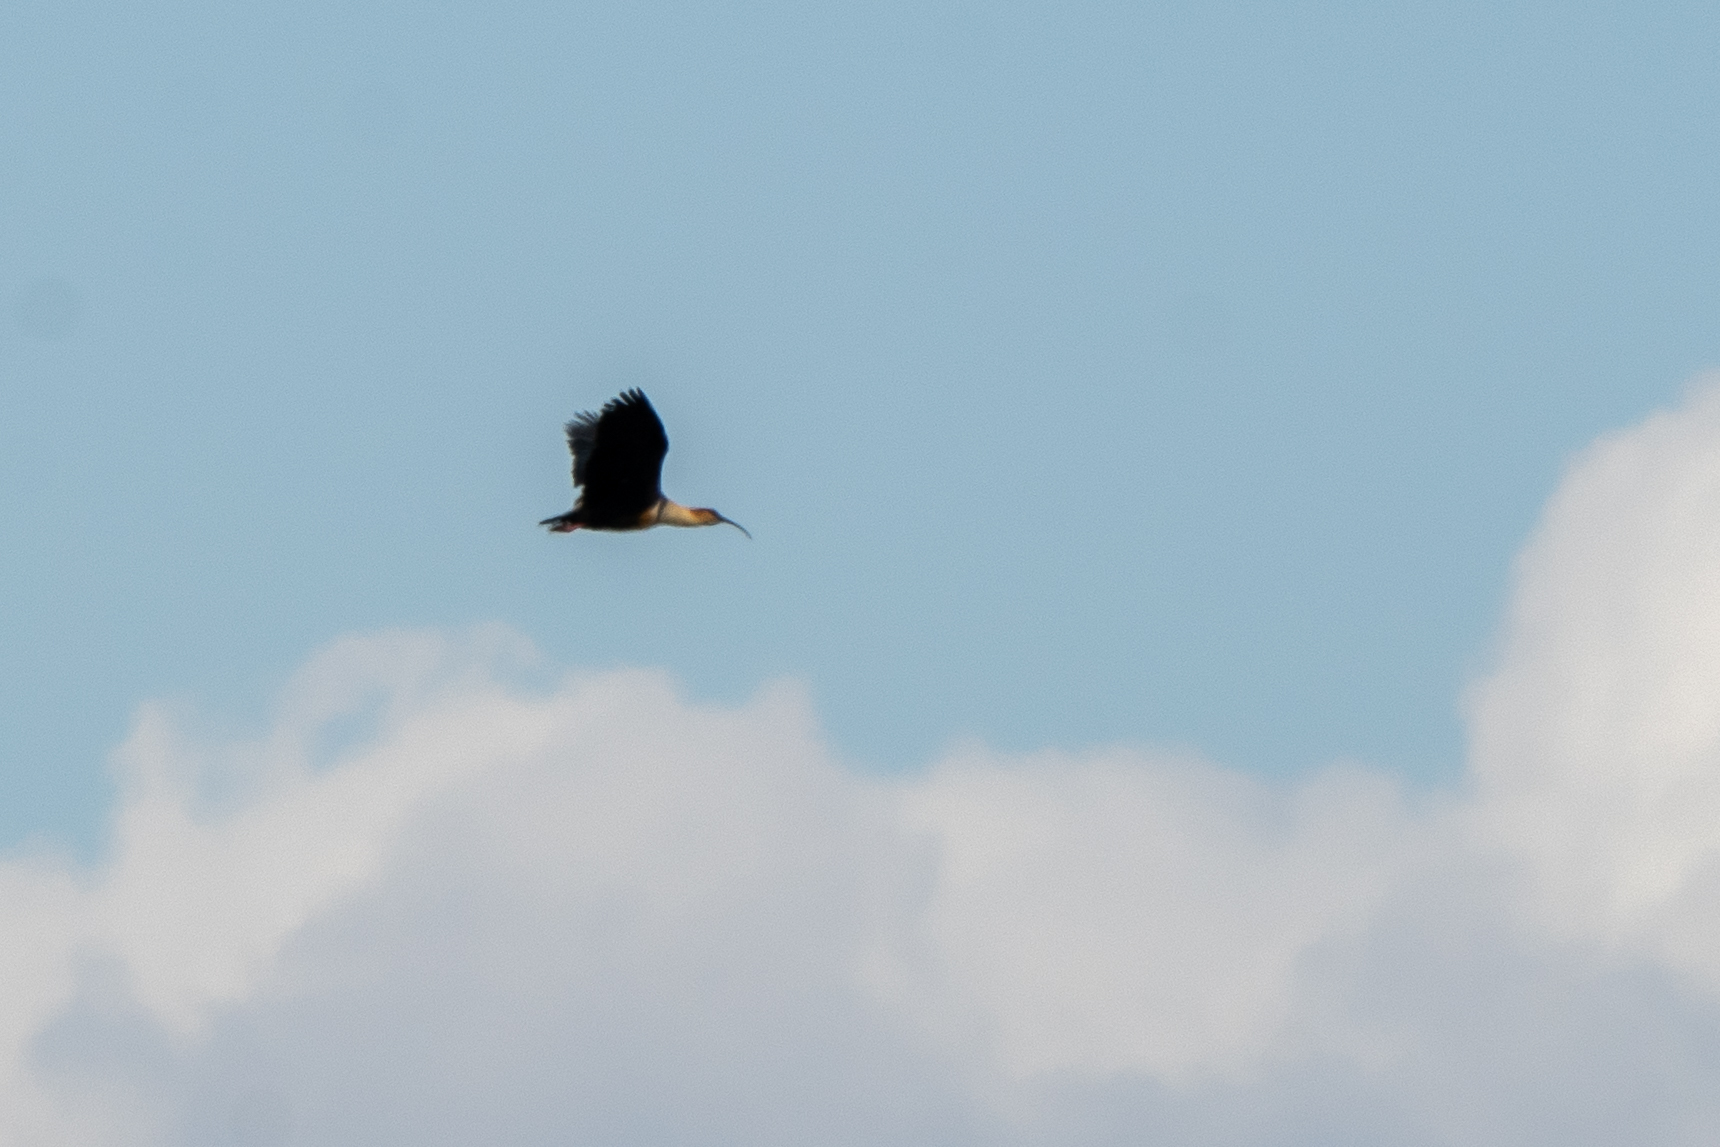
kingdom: Animalia
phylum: Chordata
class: Aves
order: Pelecaniformes
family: Threskiornithidae
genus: Theristicus
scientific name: Theristicus melanopis
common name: Black-faced ibis
